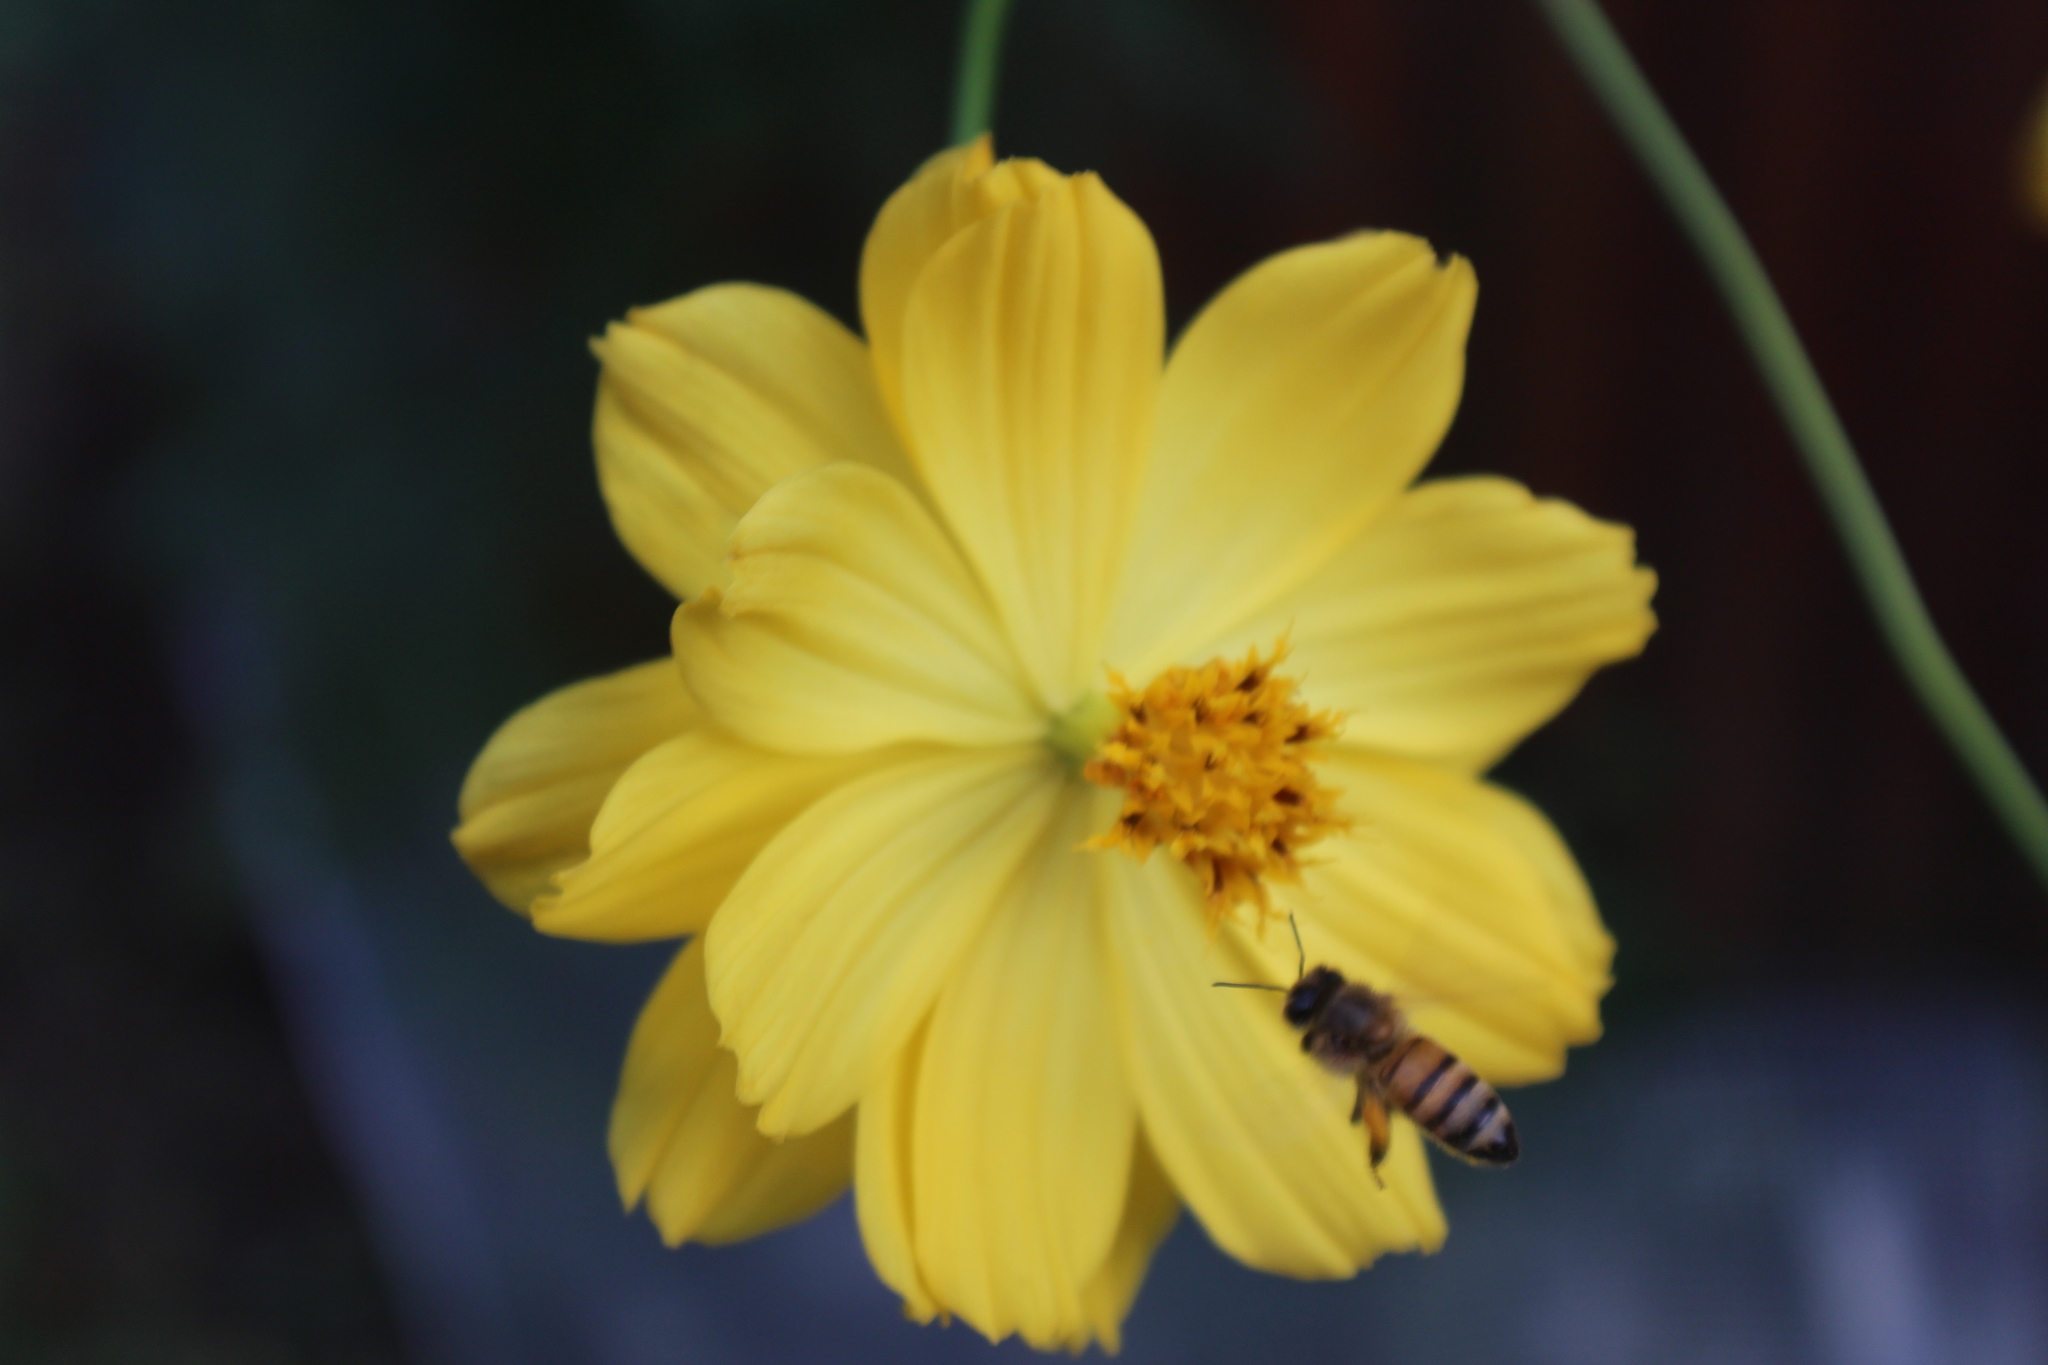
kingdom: Animalia
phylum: Arthropoda
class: Insecta
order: Hymenoptera
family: Apidae
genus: Apis
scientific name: Apis mellifera
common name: Honey bee
